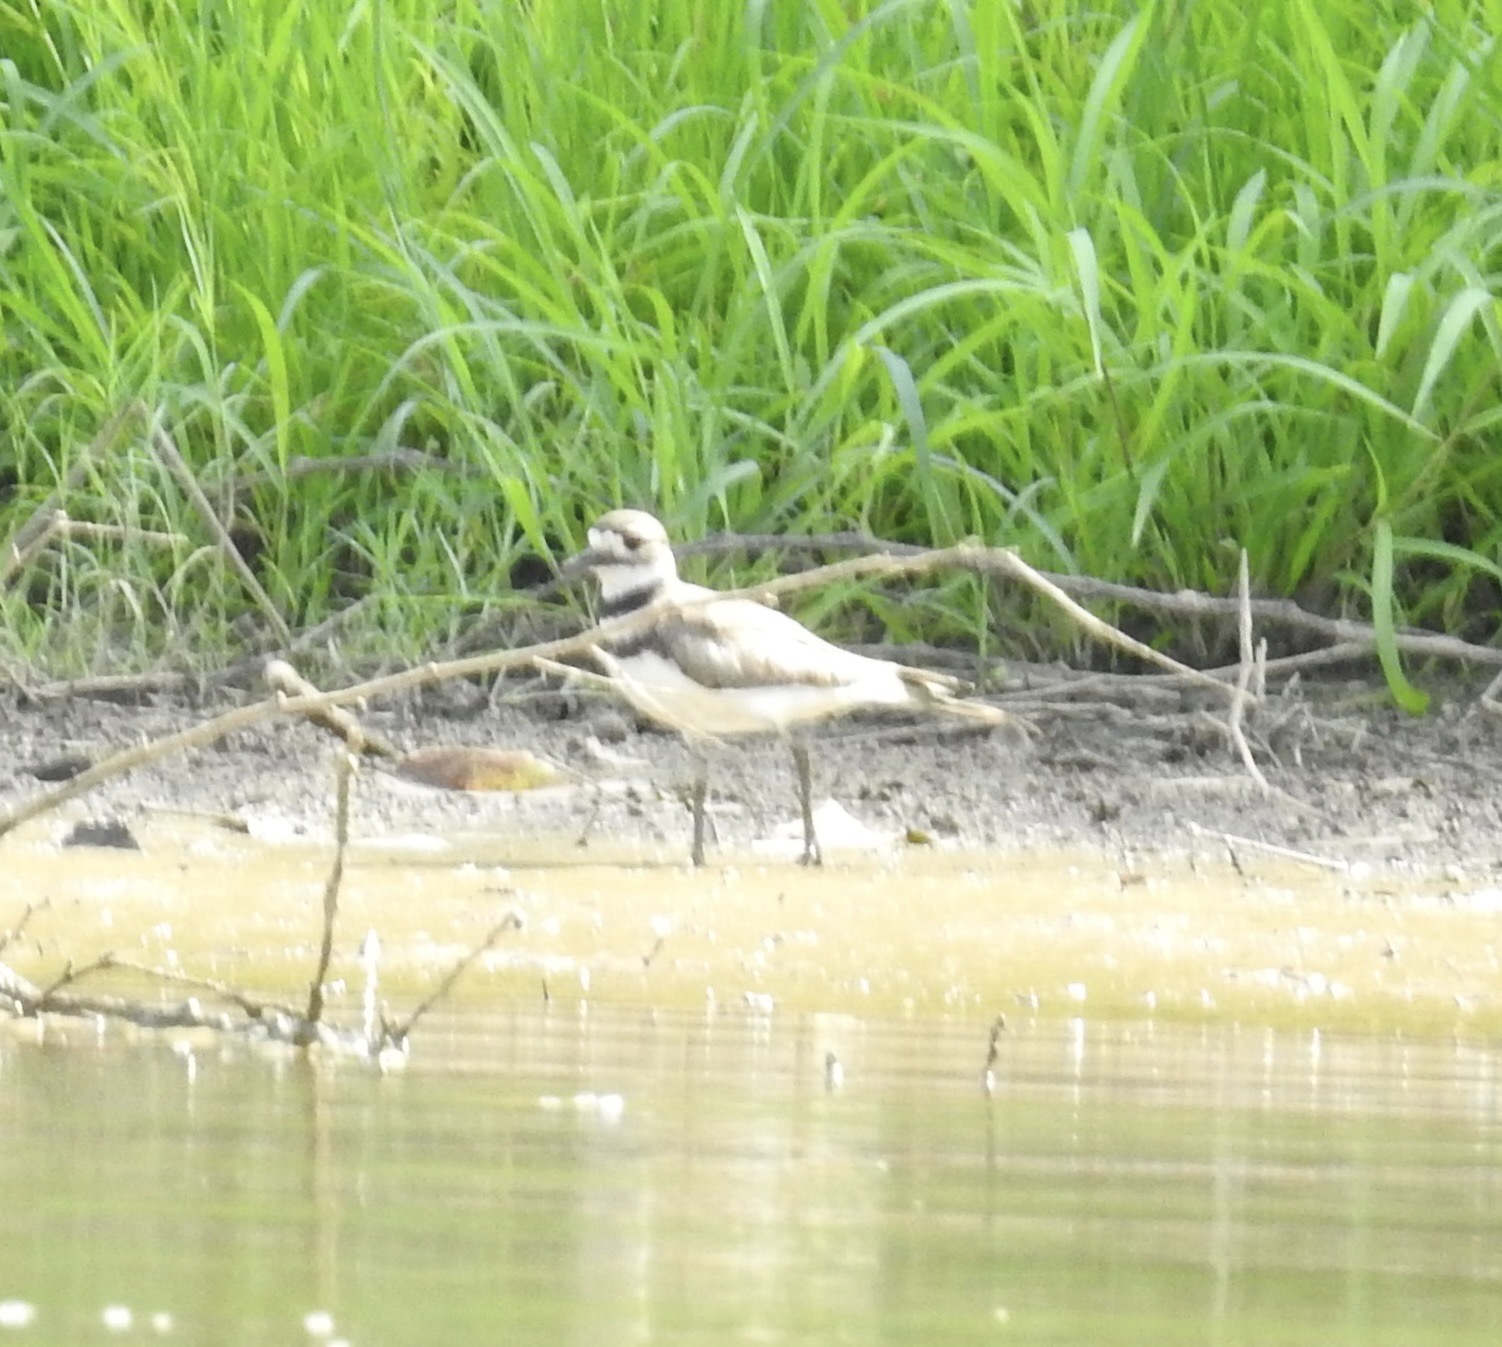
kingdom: Animalia
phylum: Chordata
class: Aves
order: Charadriiformes
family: Charadriidae
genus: Charadrius
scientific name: Charadrius vociferus
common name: Killdeer
